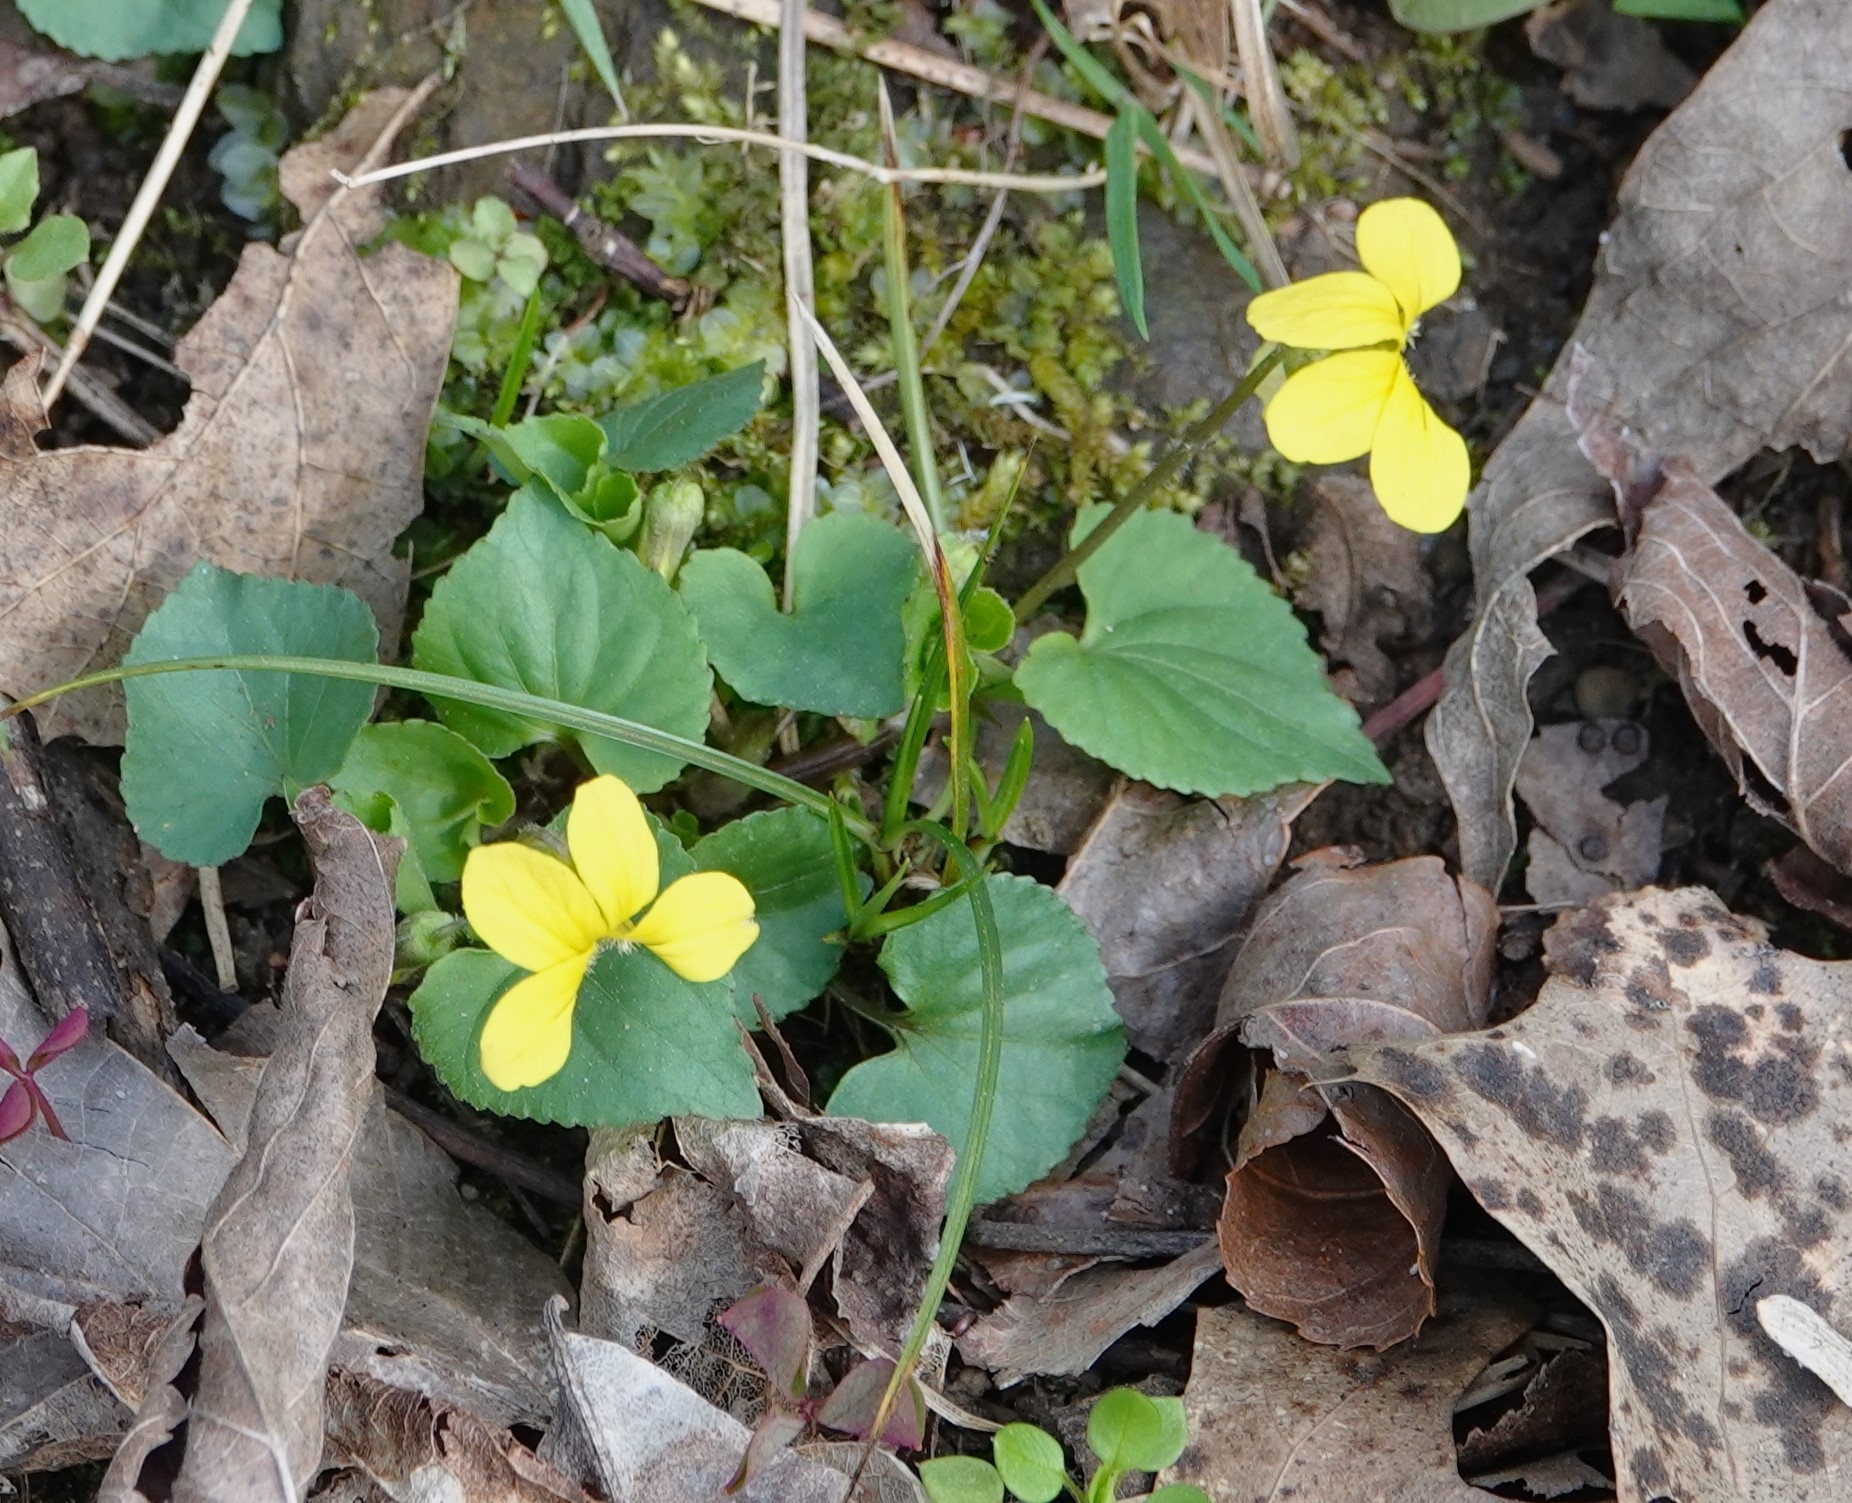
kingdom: Plantae
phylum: Tracheophyta
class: Magnoliopsida
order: Malpighiales
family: Violaceae
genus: Viola
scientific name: Viola eriocarpa
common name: Smooth yellow violet
